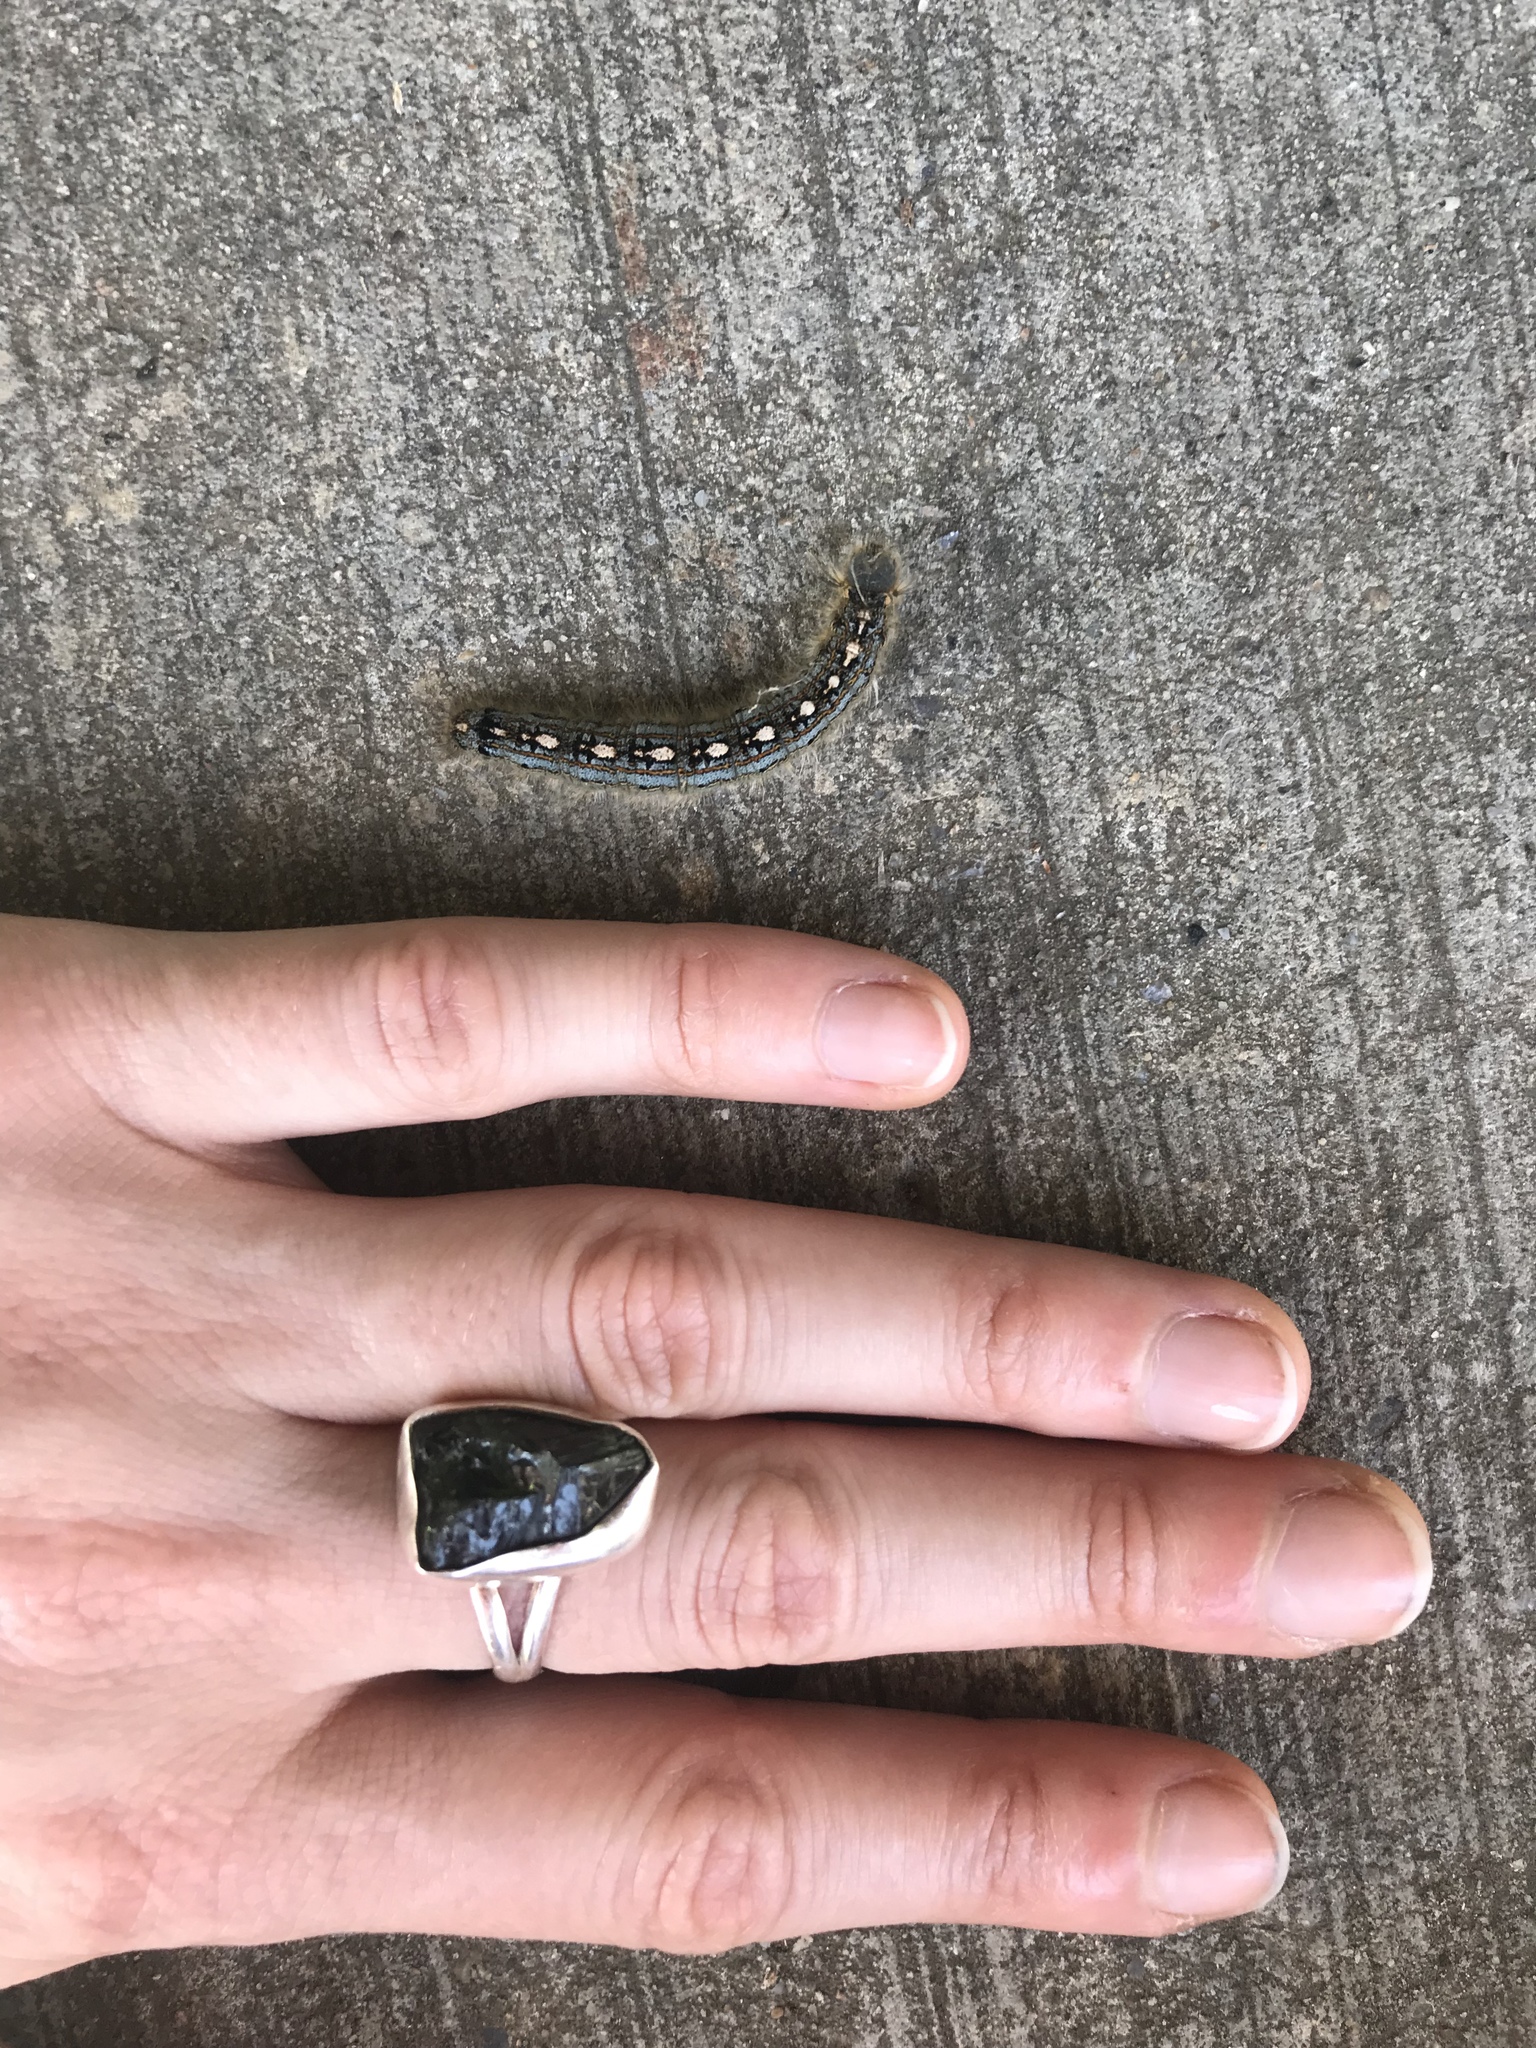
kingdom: Animalia
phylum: Arthropoda
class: Insecta
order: Lepidoptera
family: Lasiocampidae
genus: Malacosoma
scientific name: Malacosoma disstria
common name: Forest tent caterpillar
